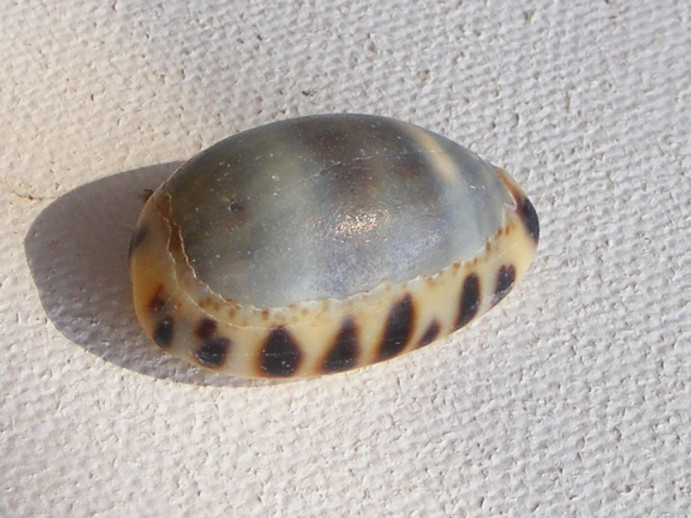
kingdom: Animalia
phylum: Mollusca
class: Gastropoda
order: Littorinimorpha
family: Cypraeidae
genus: Melicerona
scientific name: Melicerona felina
